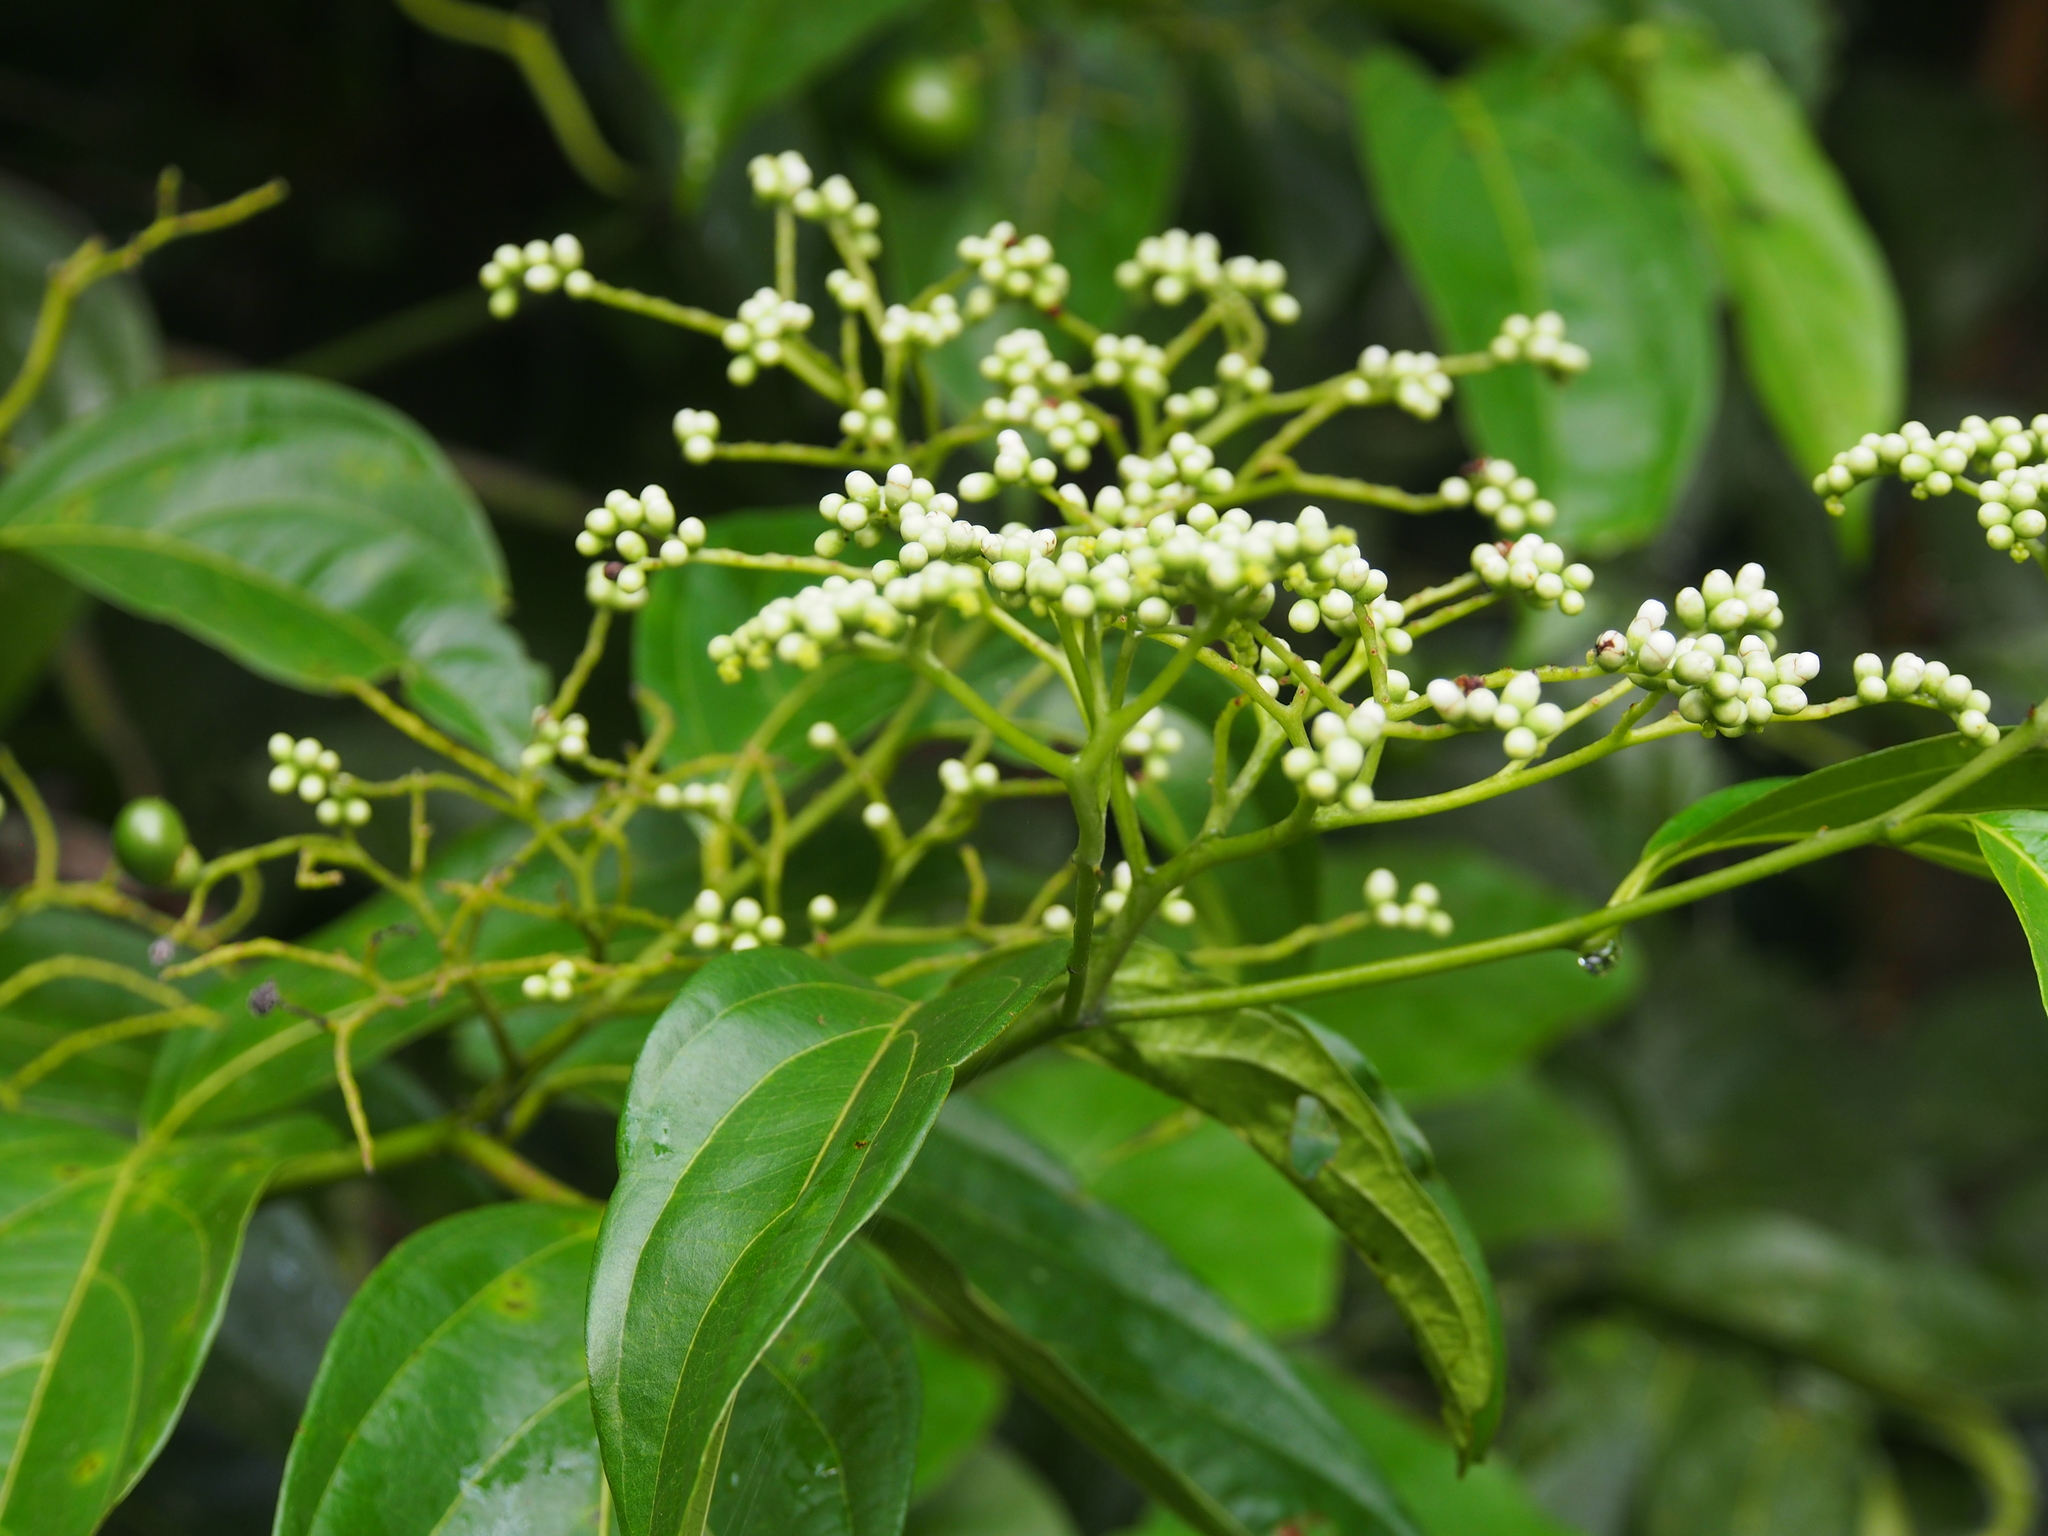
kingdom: Plantae
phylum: Tracheophyta
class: Magnoliopsida
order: Boraginales
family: Cordiaceae
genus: Cordia
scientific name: Cordia lucidula
